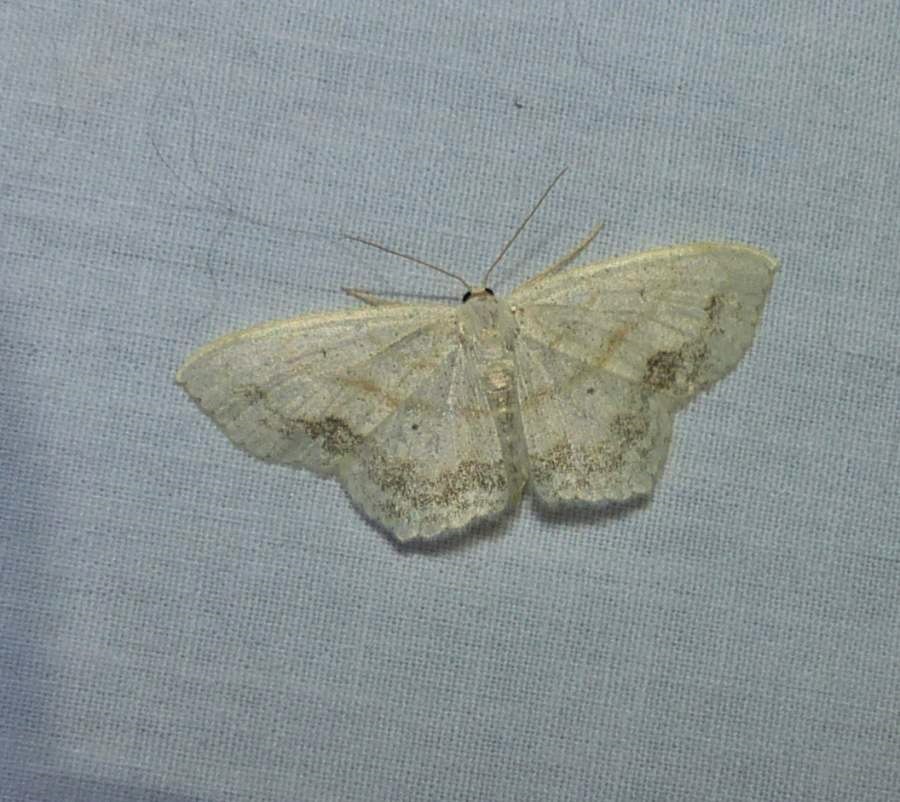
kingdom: Animalia
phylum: Arthropoda
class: Insecta
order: Lepidoptera
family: Geometridae
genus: Scopula
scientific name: Scopula limboundata
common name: Large lace border
